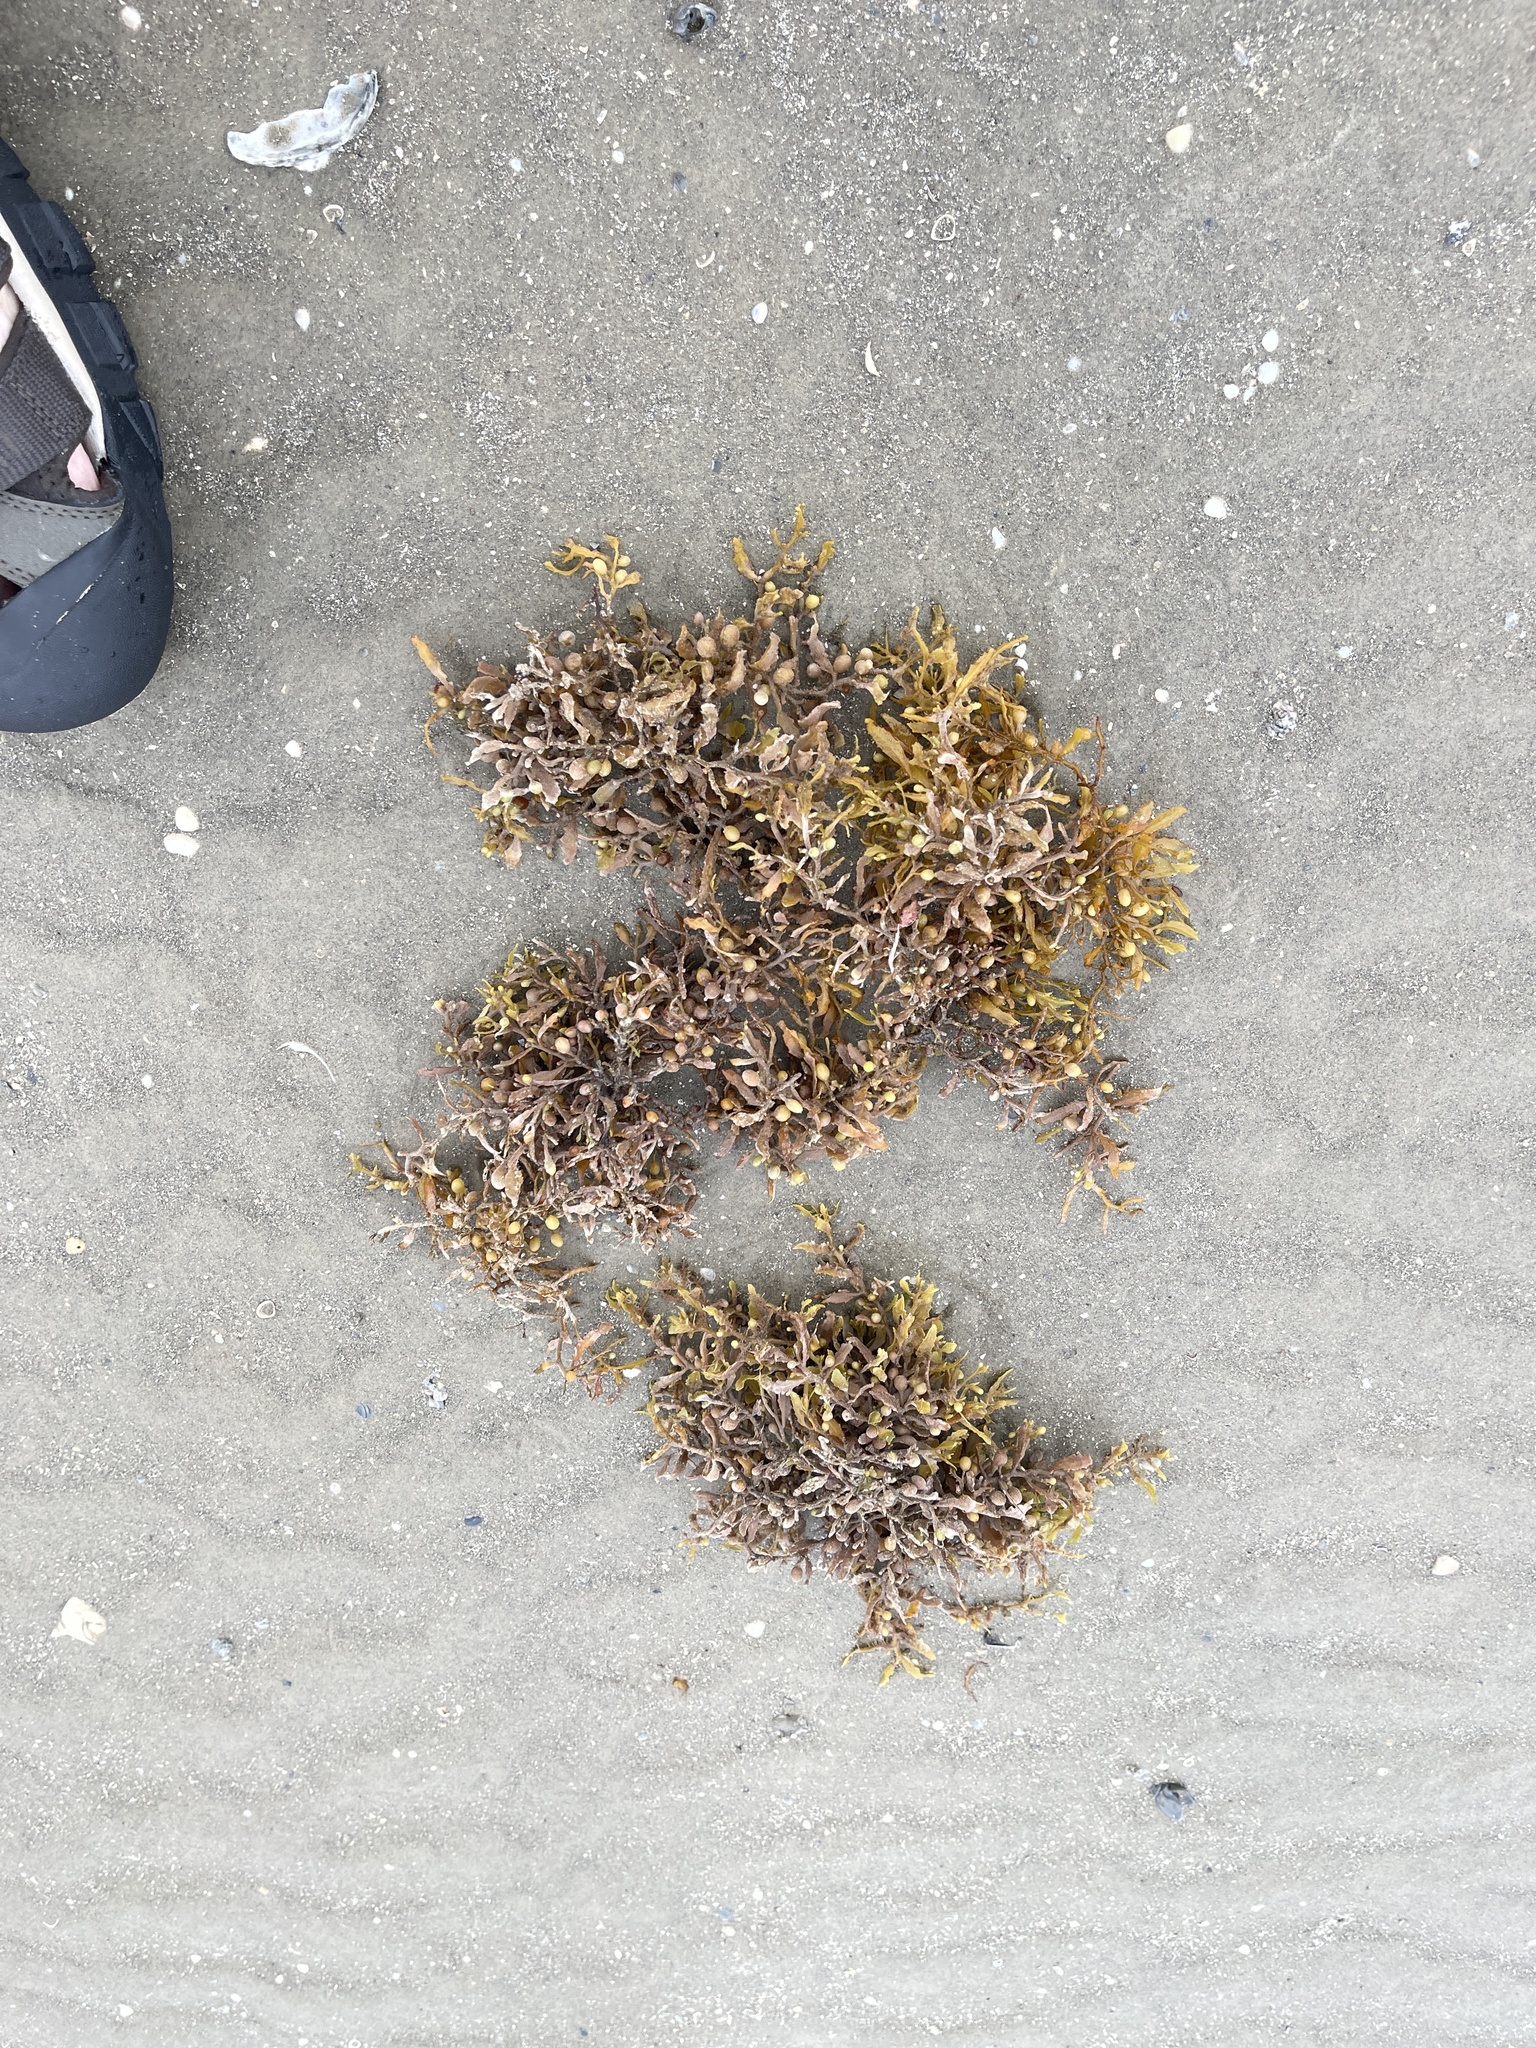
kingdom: Chromista
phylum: Ochrophyta
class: Phaeophyceae
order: Fucales
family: Sargassaceae
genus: Sargassum
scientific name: Sargassum fluitans
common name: Sargassum seaweed
